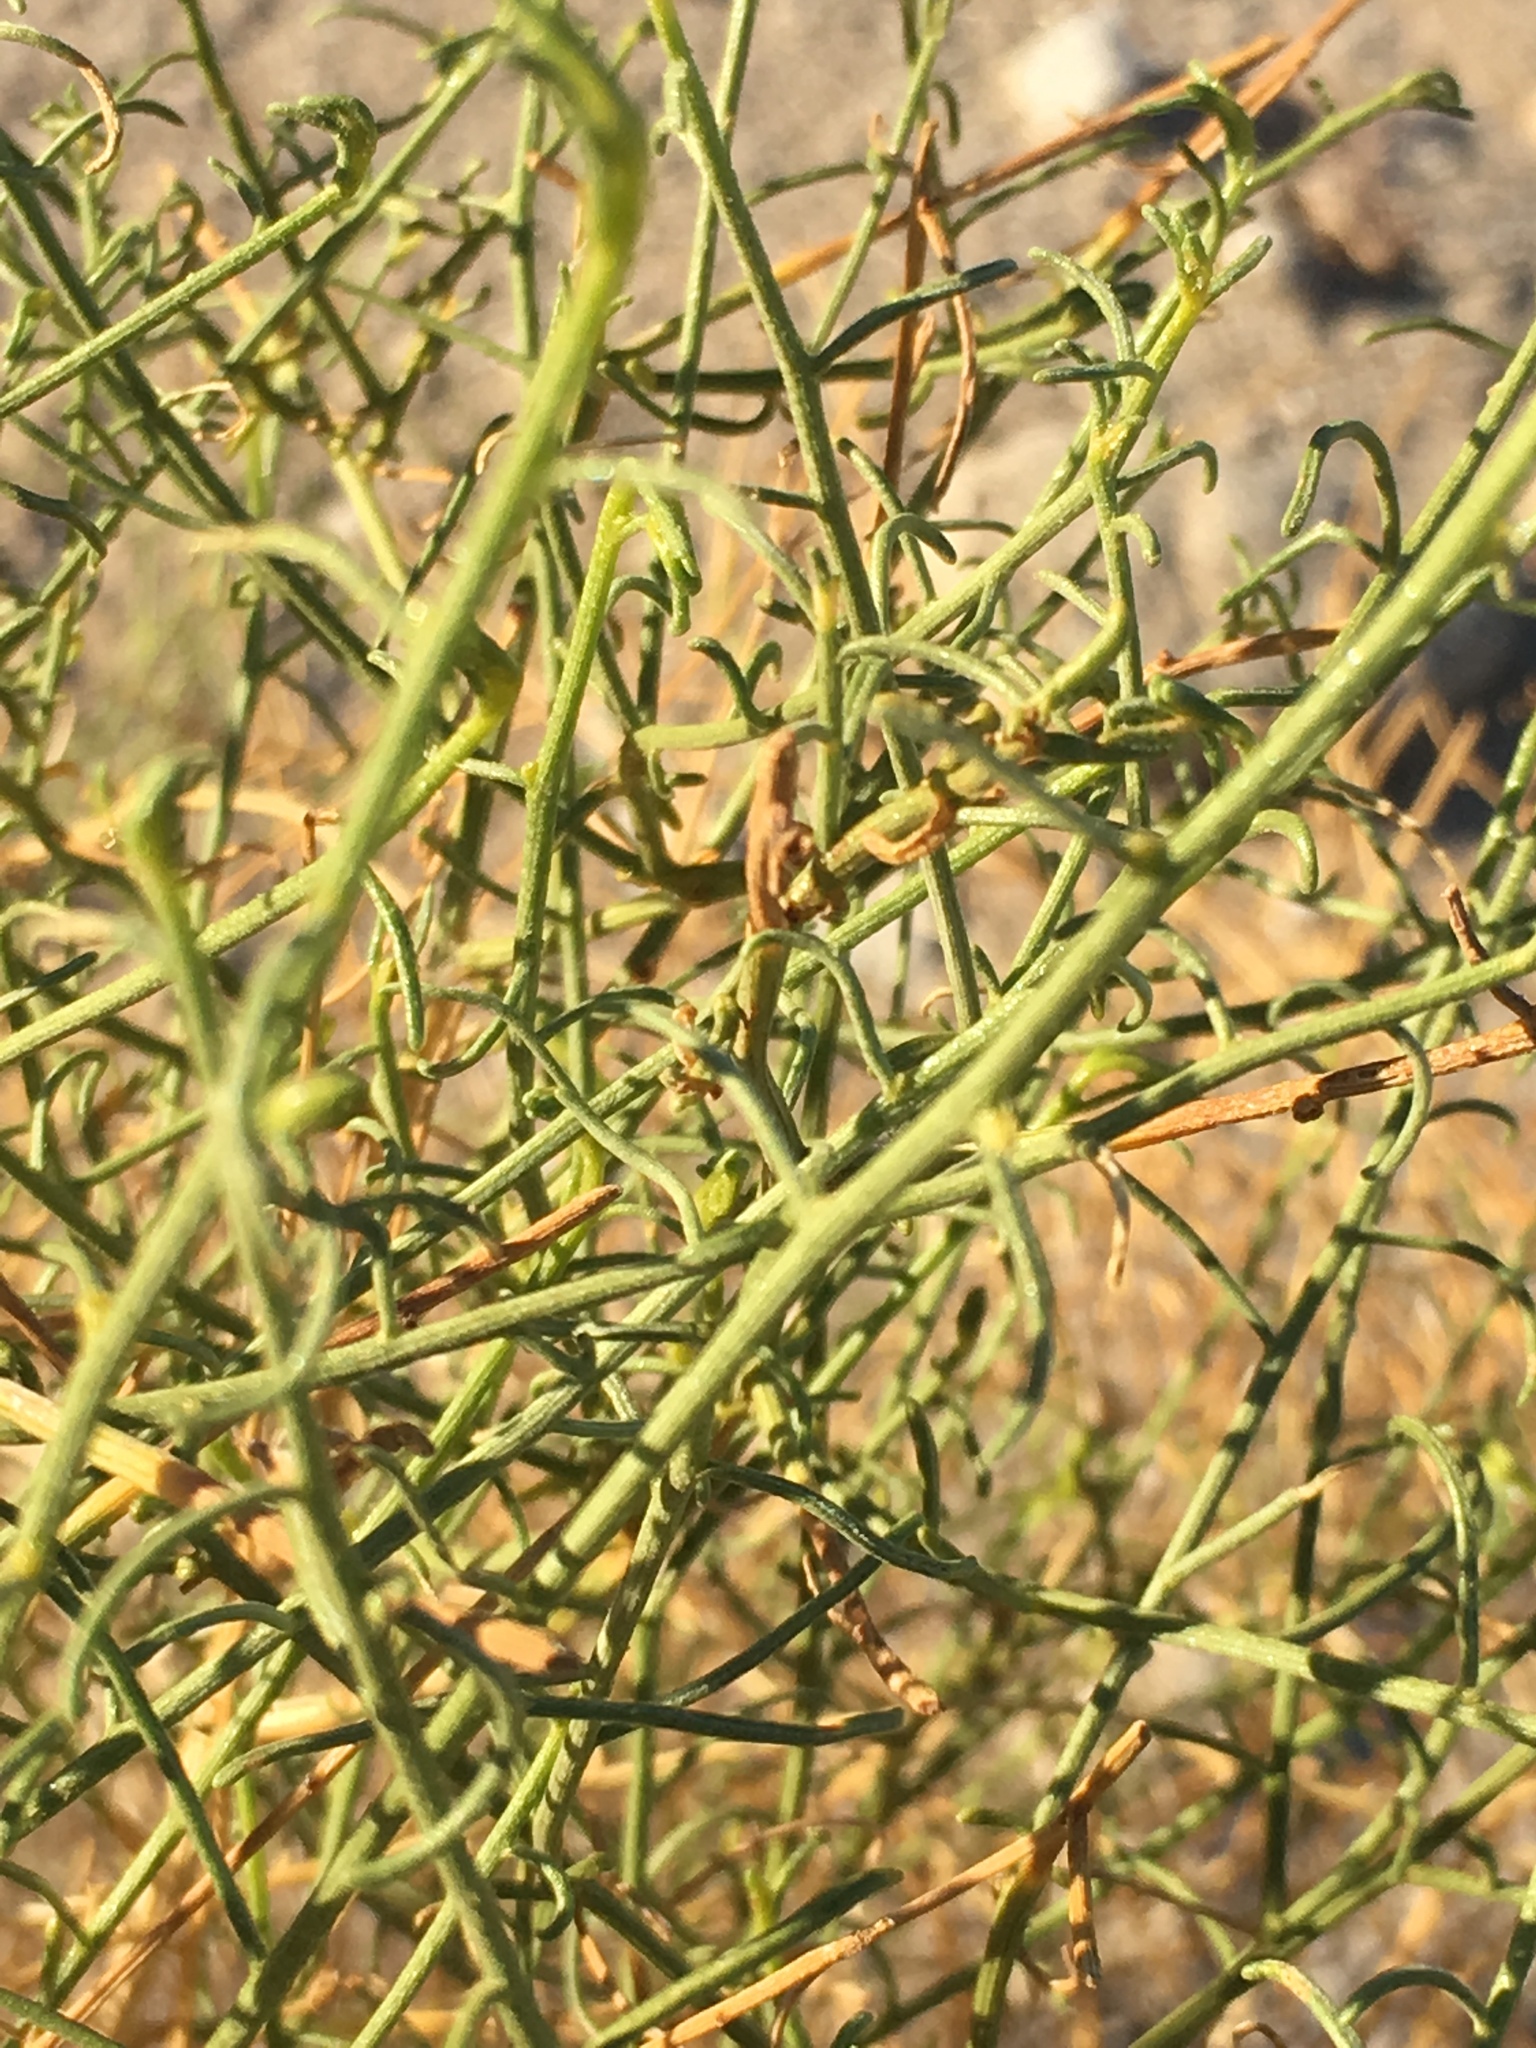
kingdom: Plantae
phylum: Tracheophyta
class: Magnoliopsida
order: Asterales
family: Asteraceae
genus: Ambrosia
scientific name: Ambrosia salsola
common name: Burrobrush
